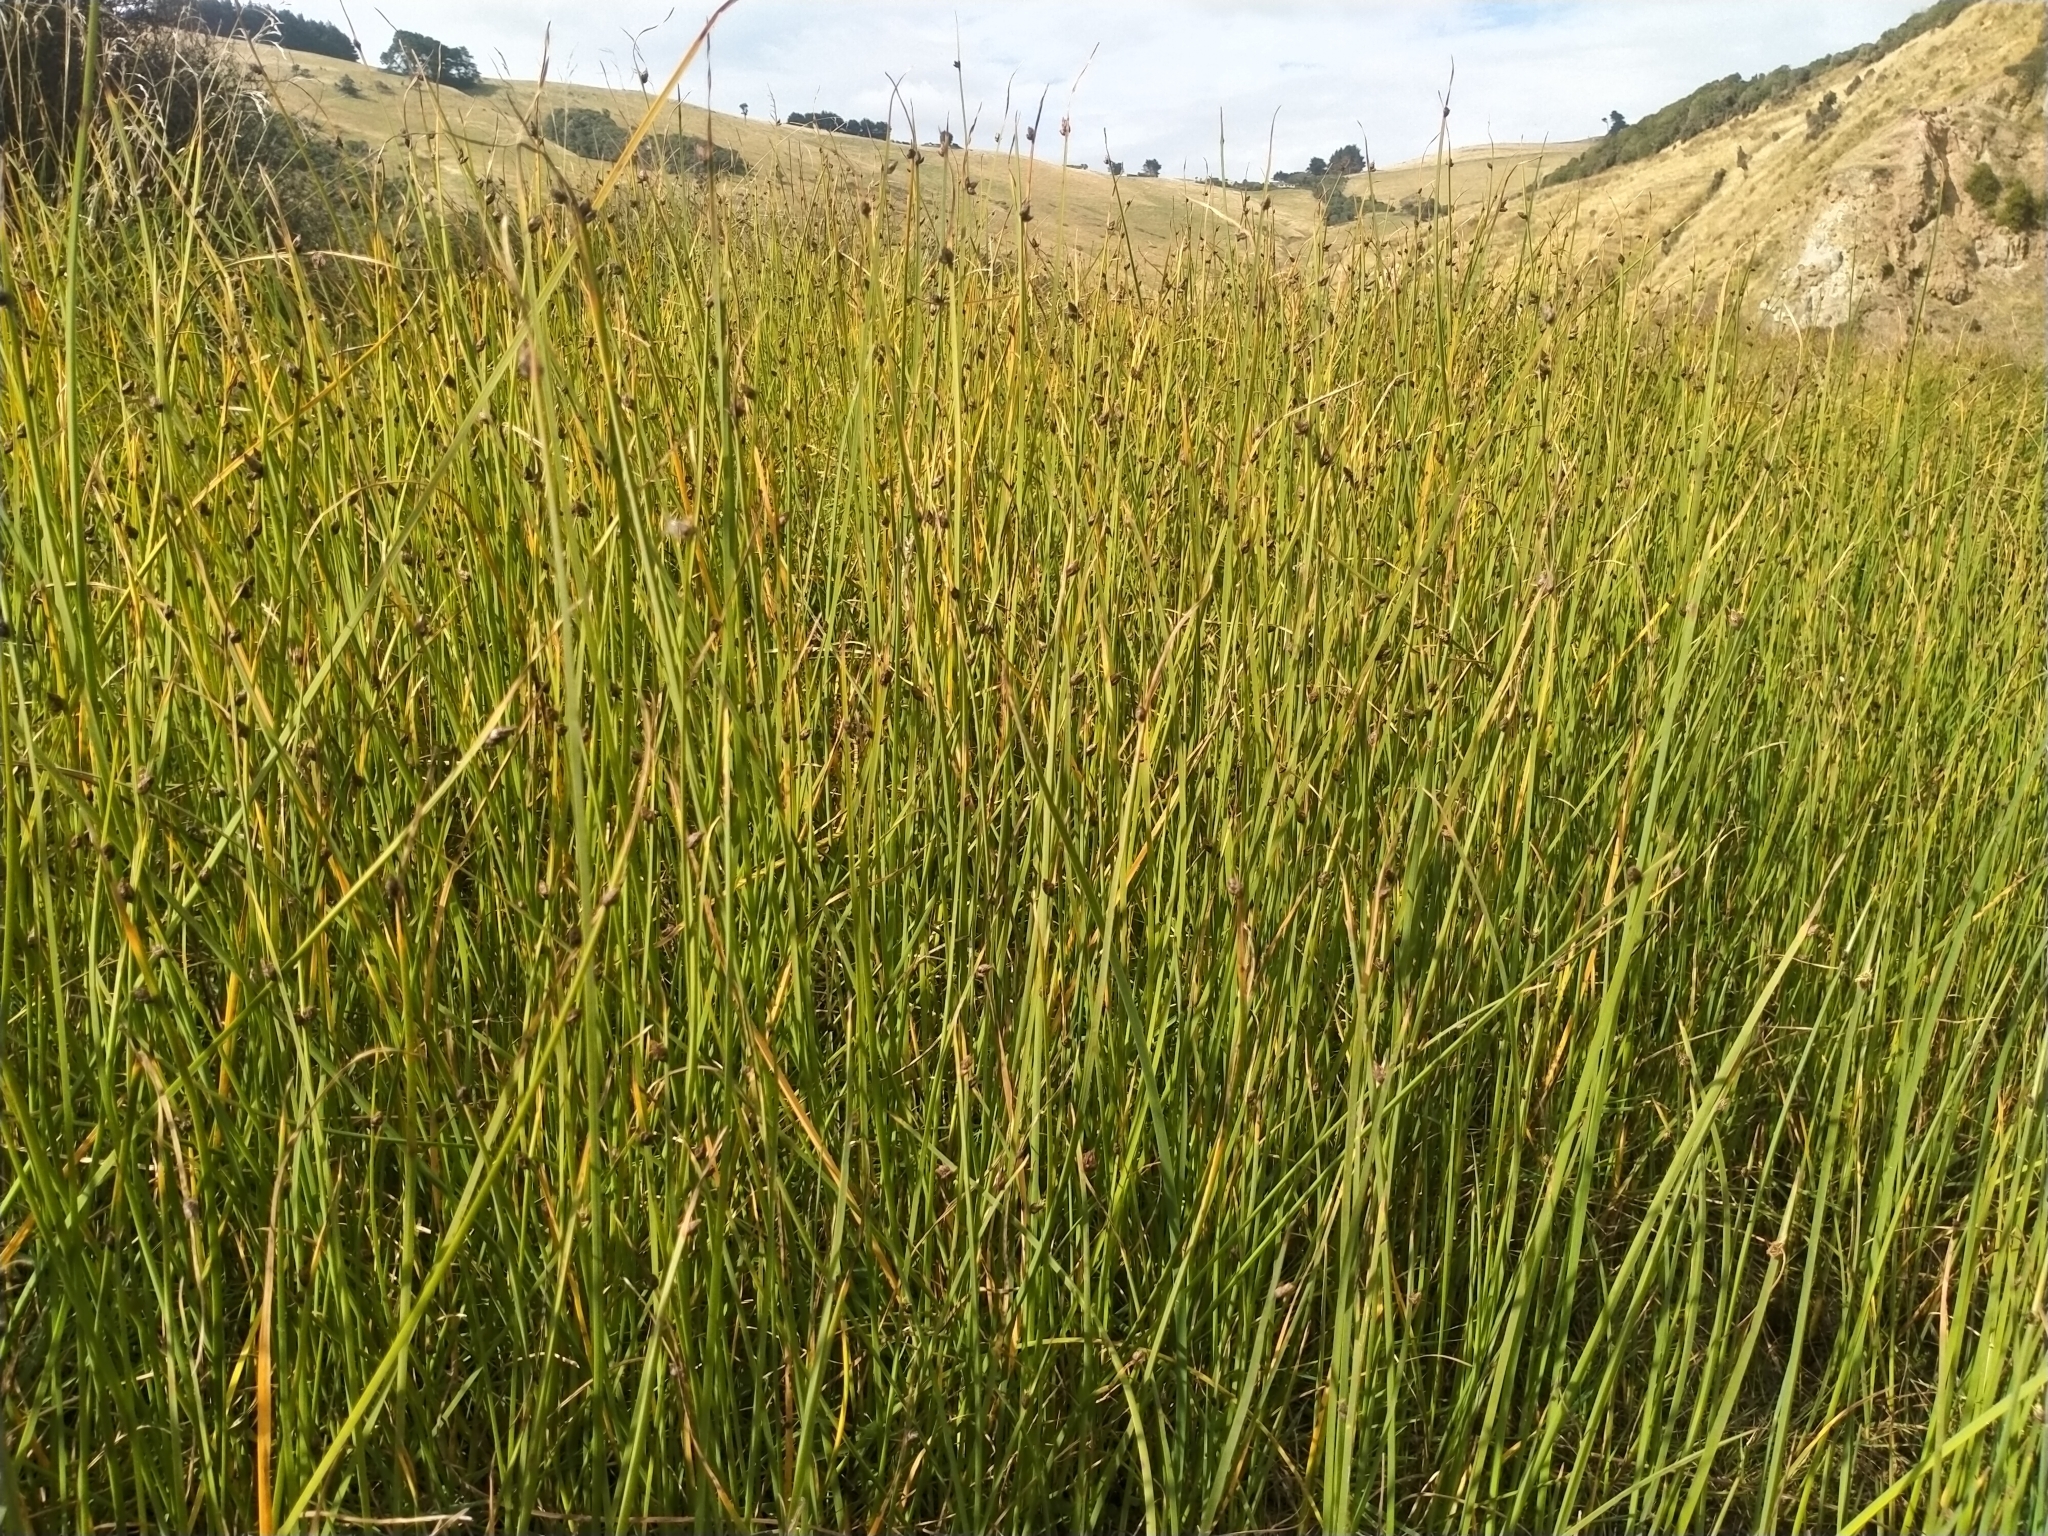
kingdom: Plantae
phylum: Tracheophyta
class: Liliopsida
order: Poales
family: Cyperaceae
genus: Schoenoplectus
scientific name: Schoenoplectus pungens
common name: Sharp club-rush
